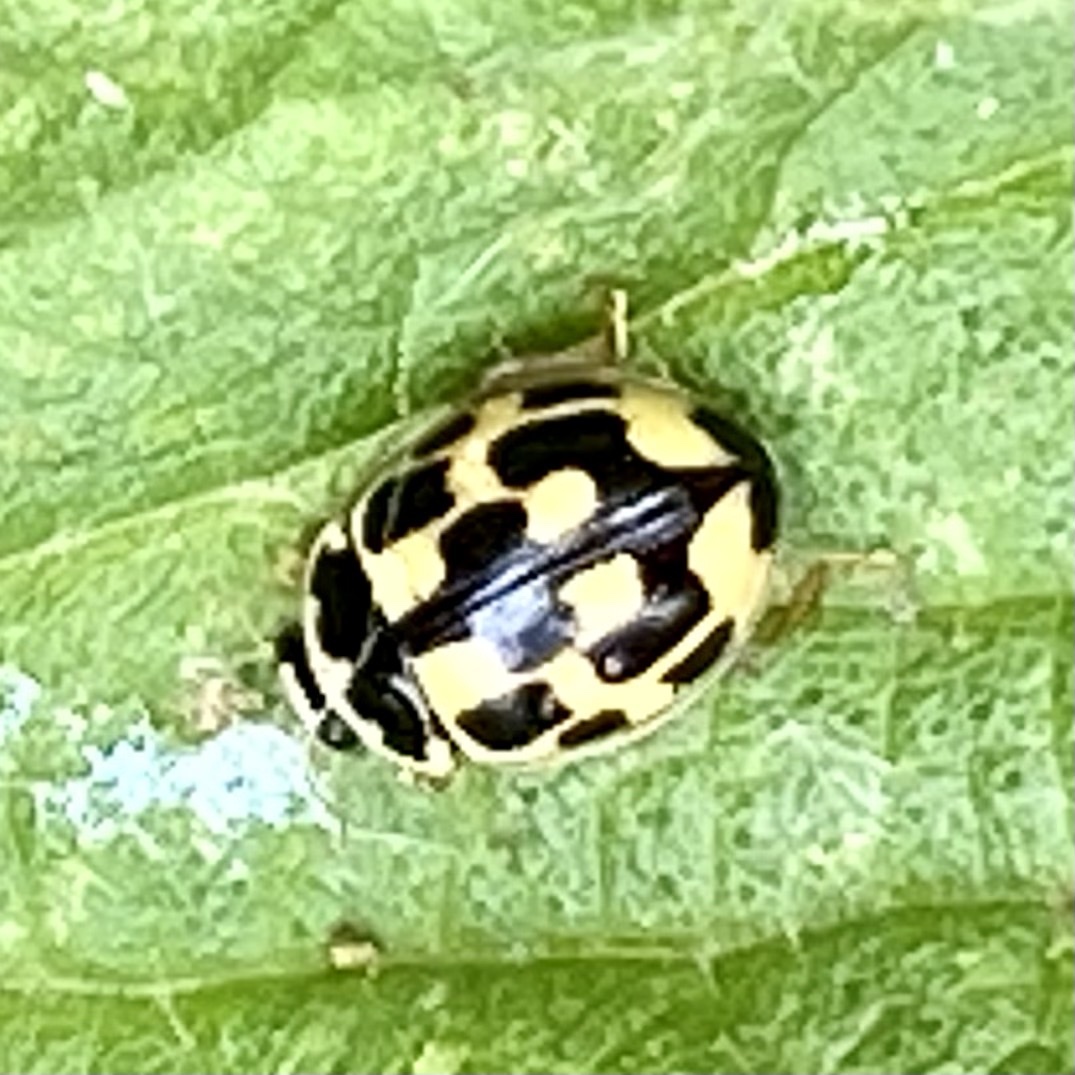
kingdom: Animalia
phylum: Arthropoda
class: Insecta
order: Coleoptera
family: Coccinellidae
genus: Propylaea
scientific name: Propylaea quatuordecimpunctata
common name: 14-spotted ladybird beetle
